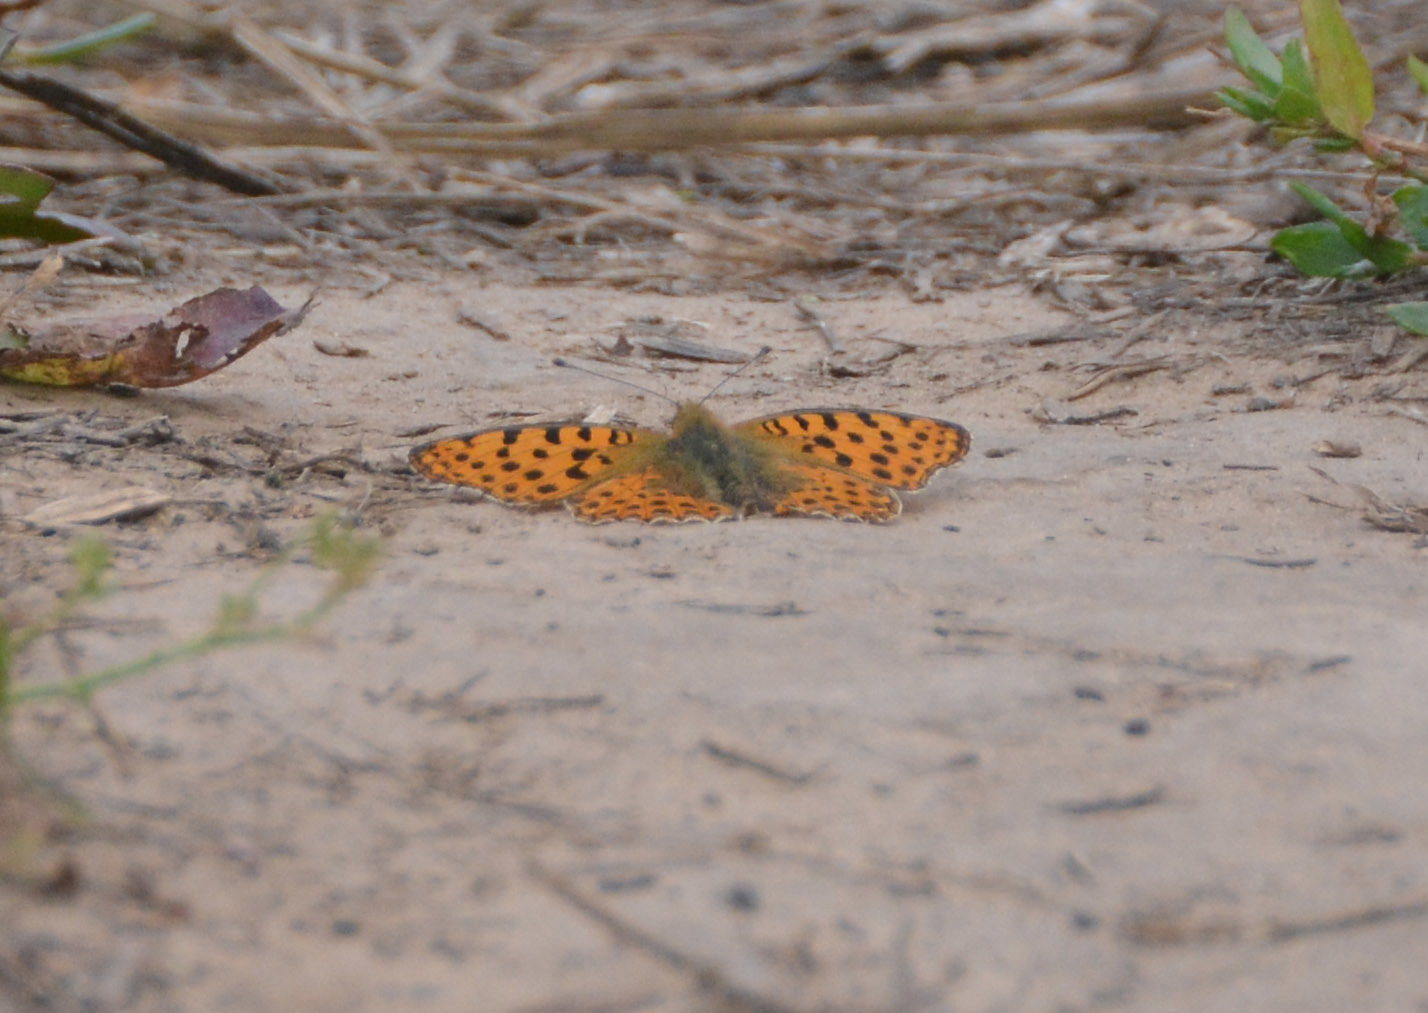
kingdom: Animalia
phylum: Arthropoda
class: Insecta
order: Lepidoptera
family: Nymphalidae
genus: Issoria
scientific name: Issoria lathonia
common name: Queen of spain fritillary
